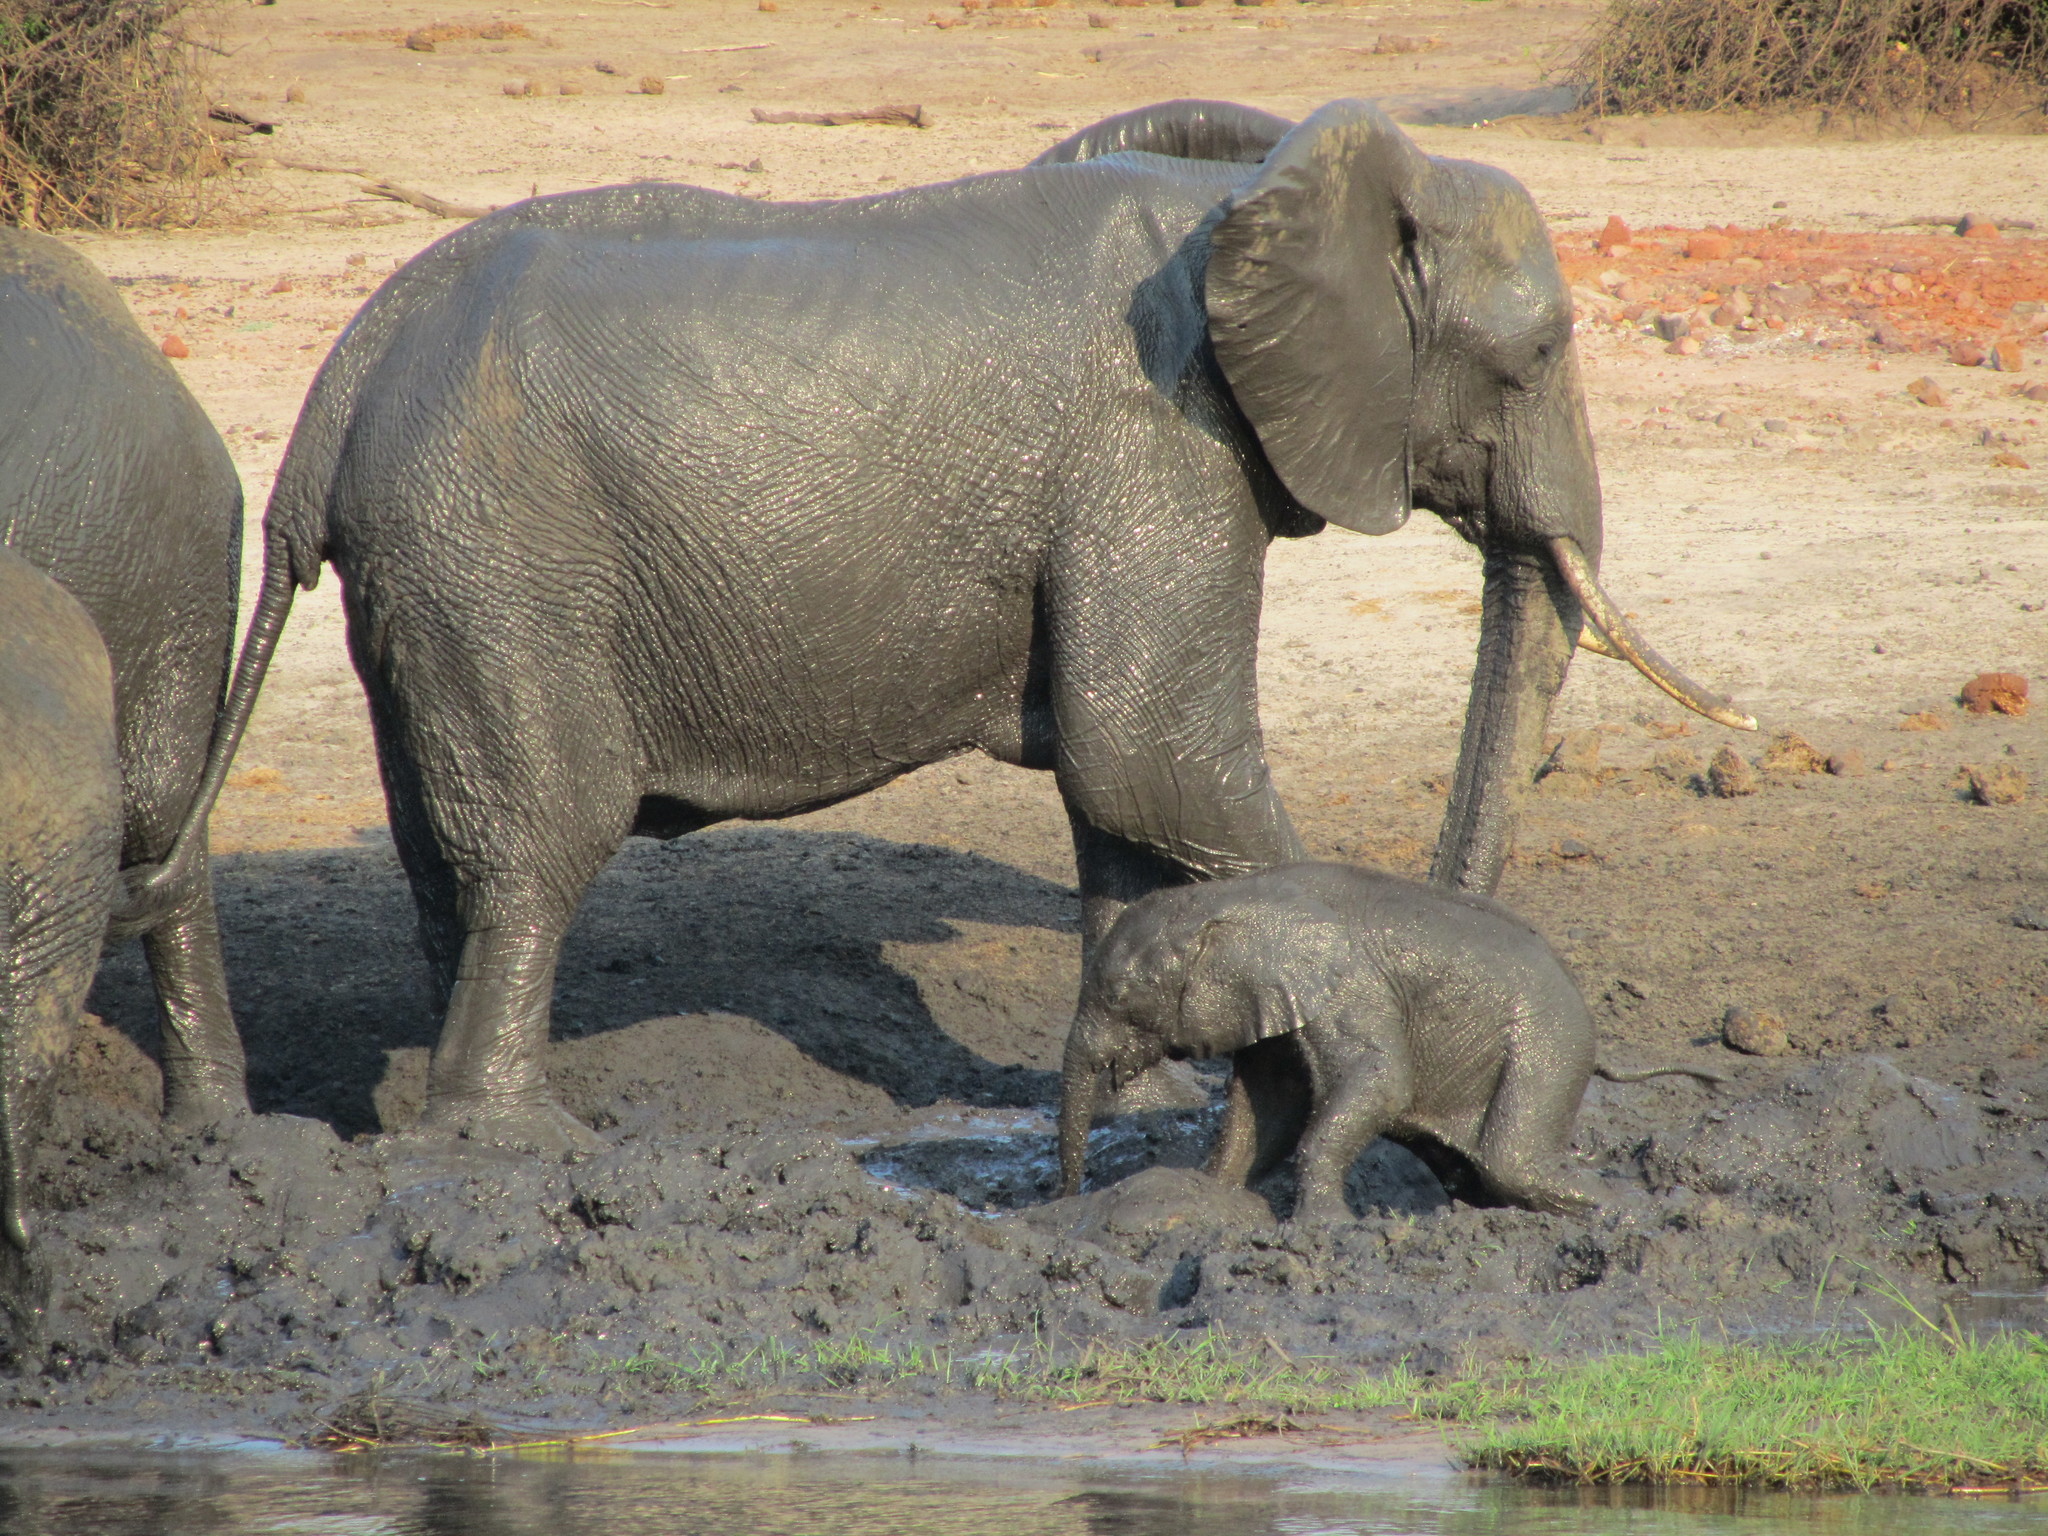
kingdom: Animalia
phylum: Chordata
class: Mammalia
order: Proboscidea
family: Elephantidae
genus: Loxodonta
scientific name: Loxodonta africana
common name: African elephant
